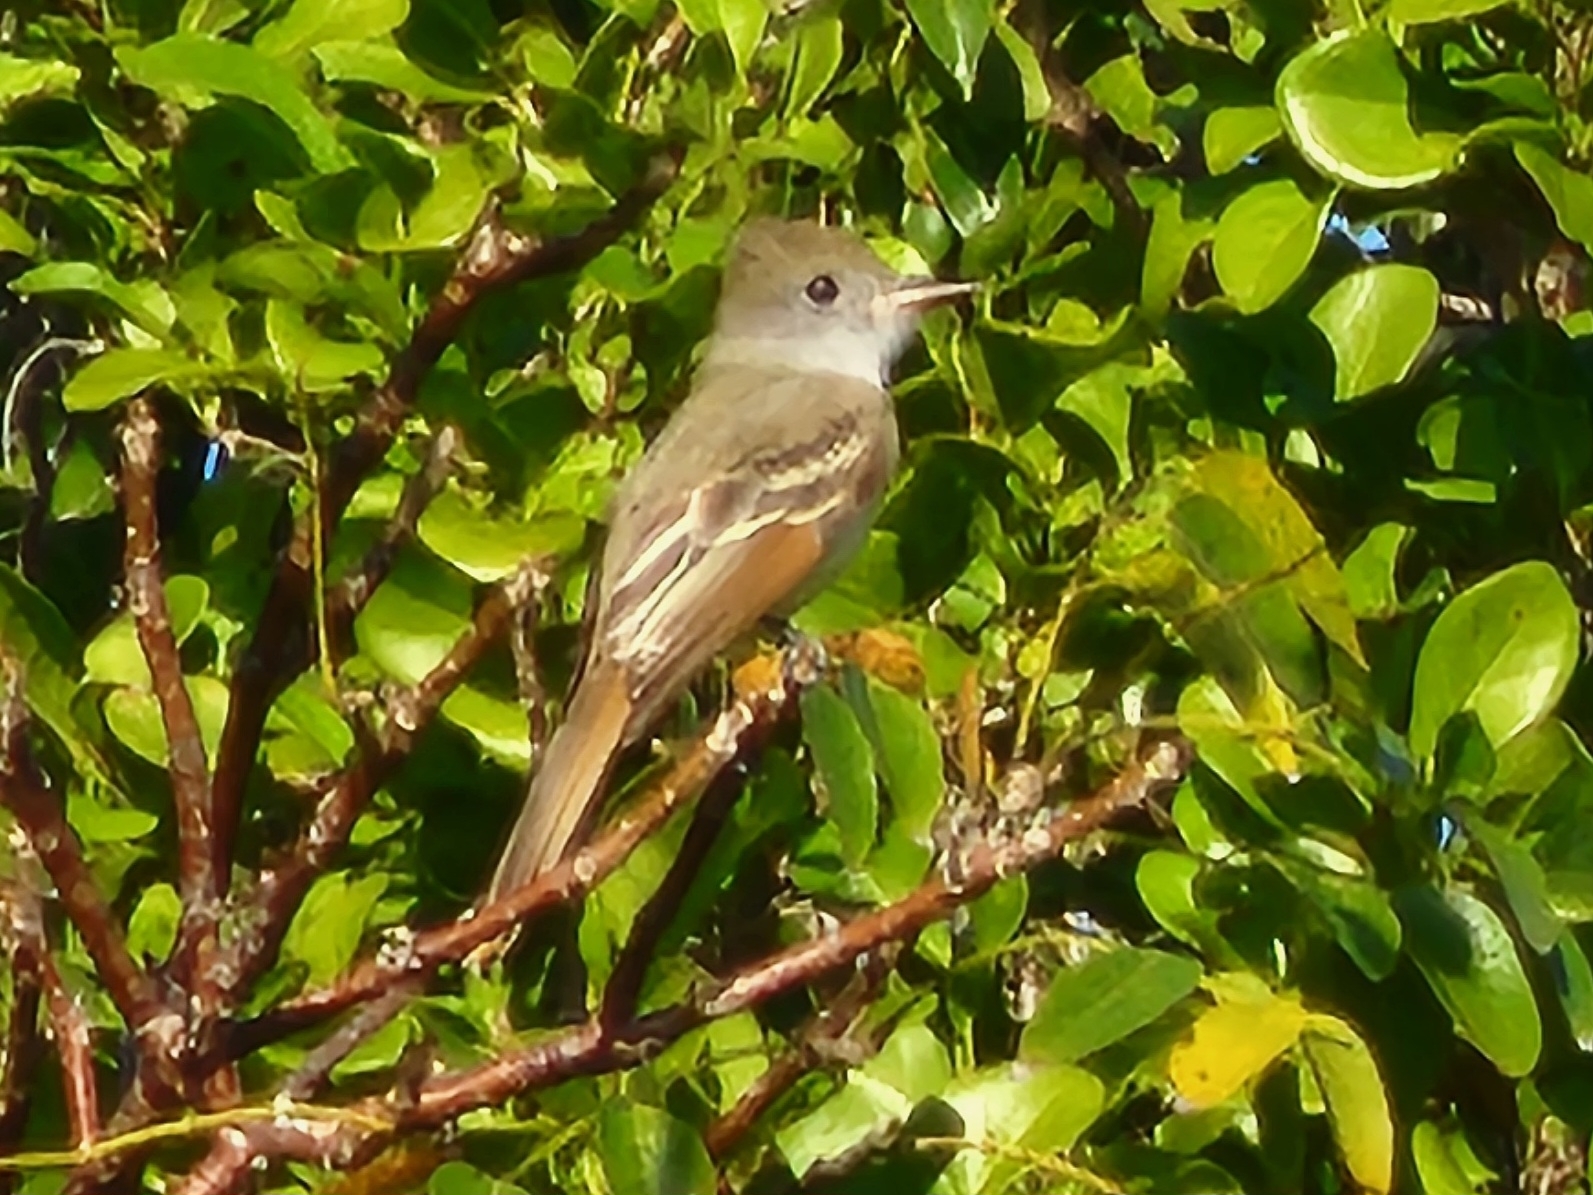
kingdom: Animalia
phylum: Chordata
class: Aves
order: Passeriformes
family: Tyrannidae
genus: Myiarchus
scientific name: Myiarchus crinitus
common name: Great crested flycatcher
